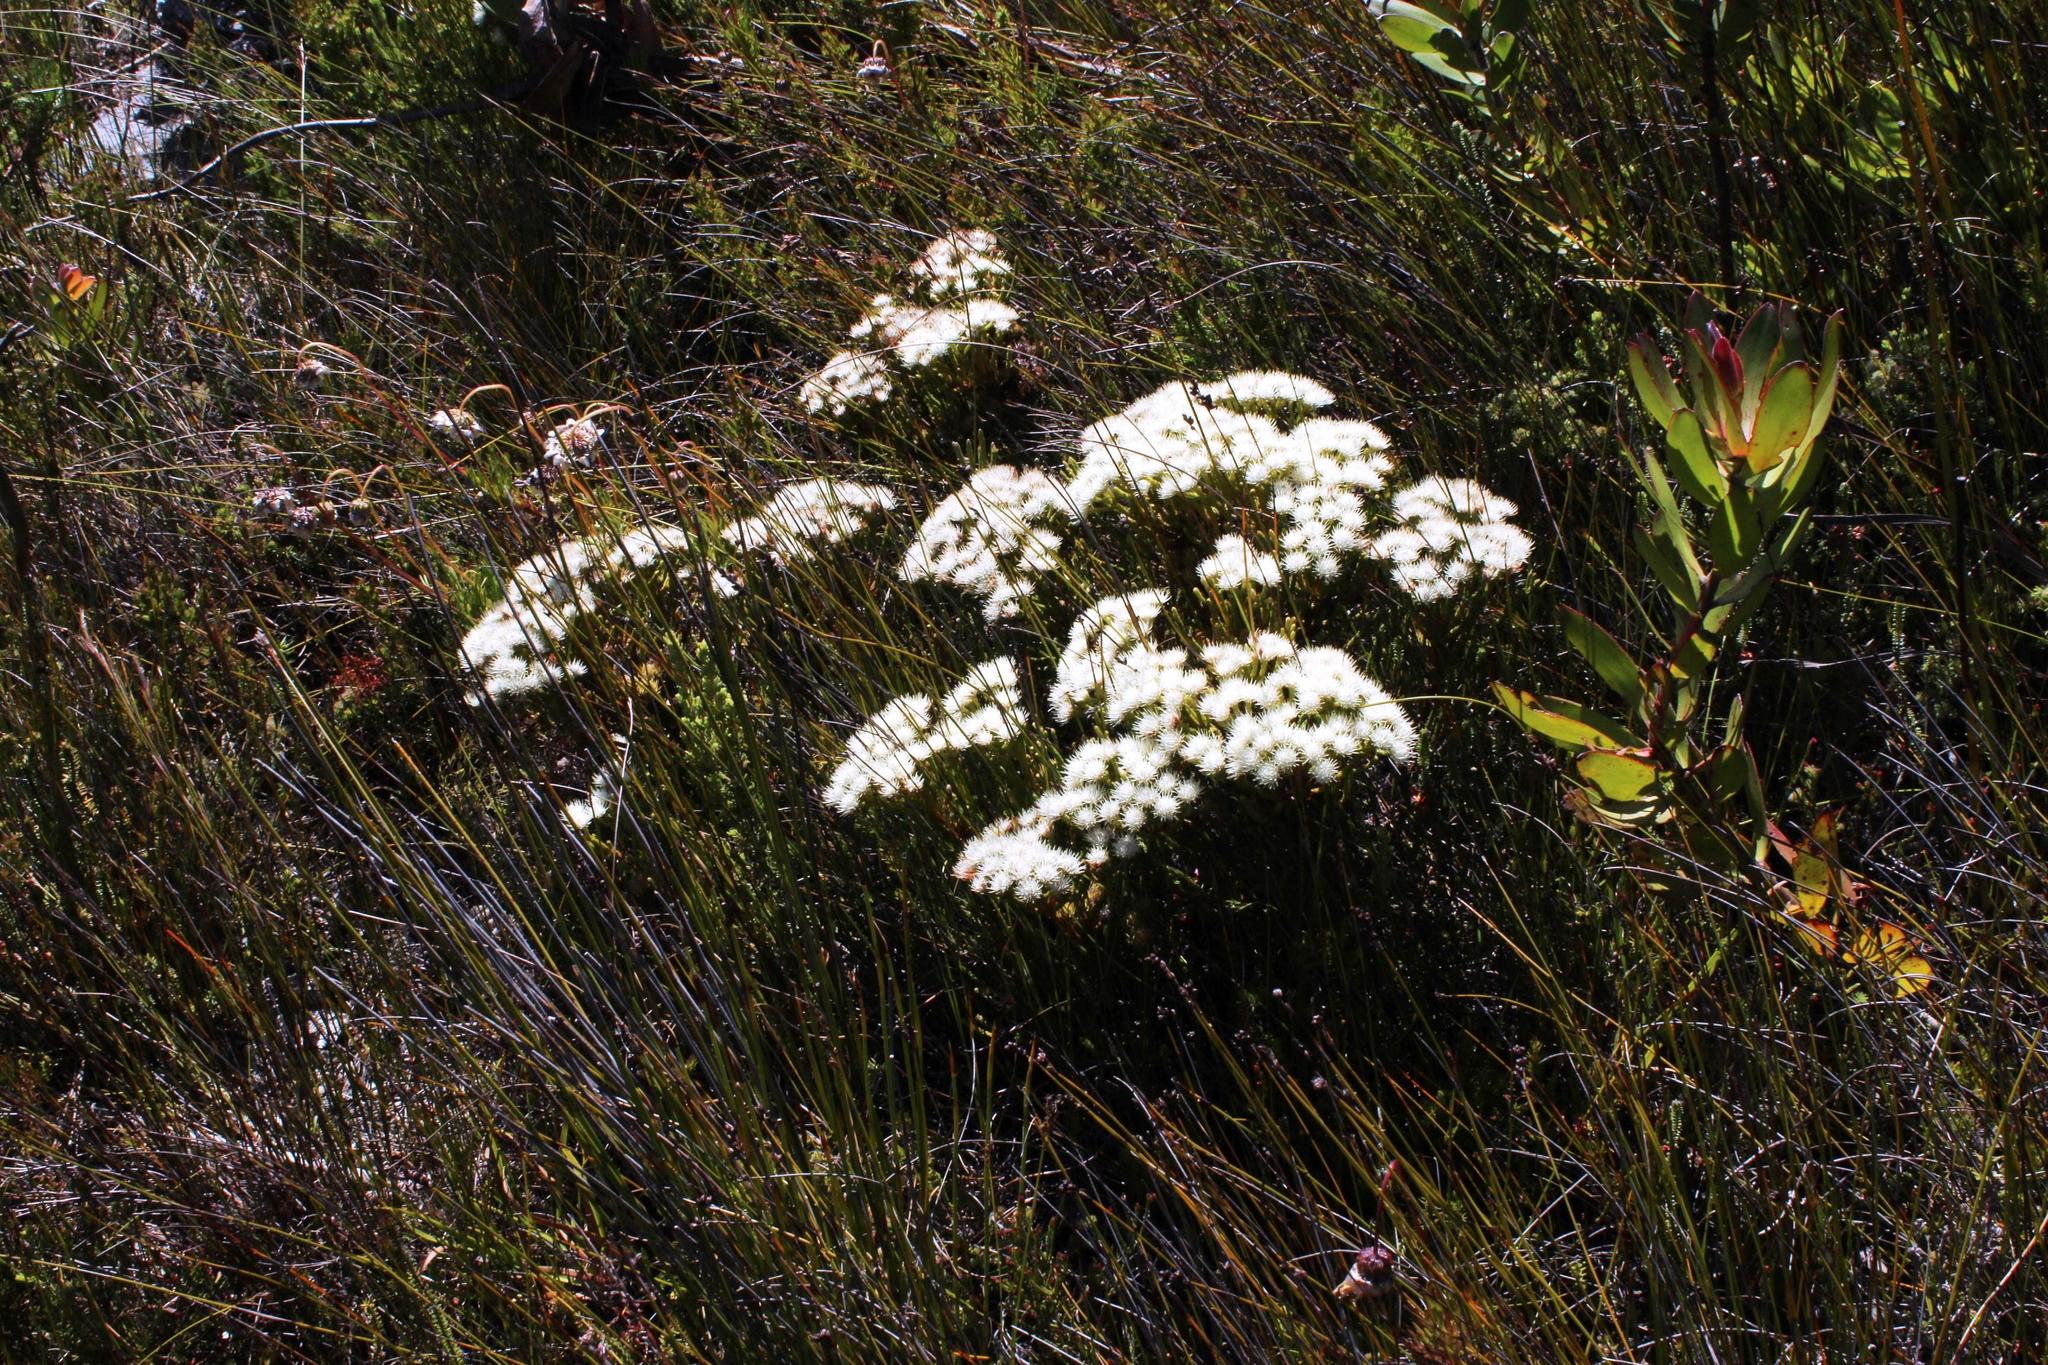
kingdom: Plantae
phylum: Tracheophyta
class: Magnoliopsida
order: Bruniales
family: Bruniaceae
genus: Brunia
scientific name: Brunia paleacea
